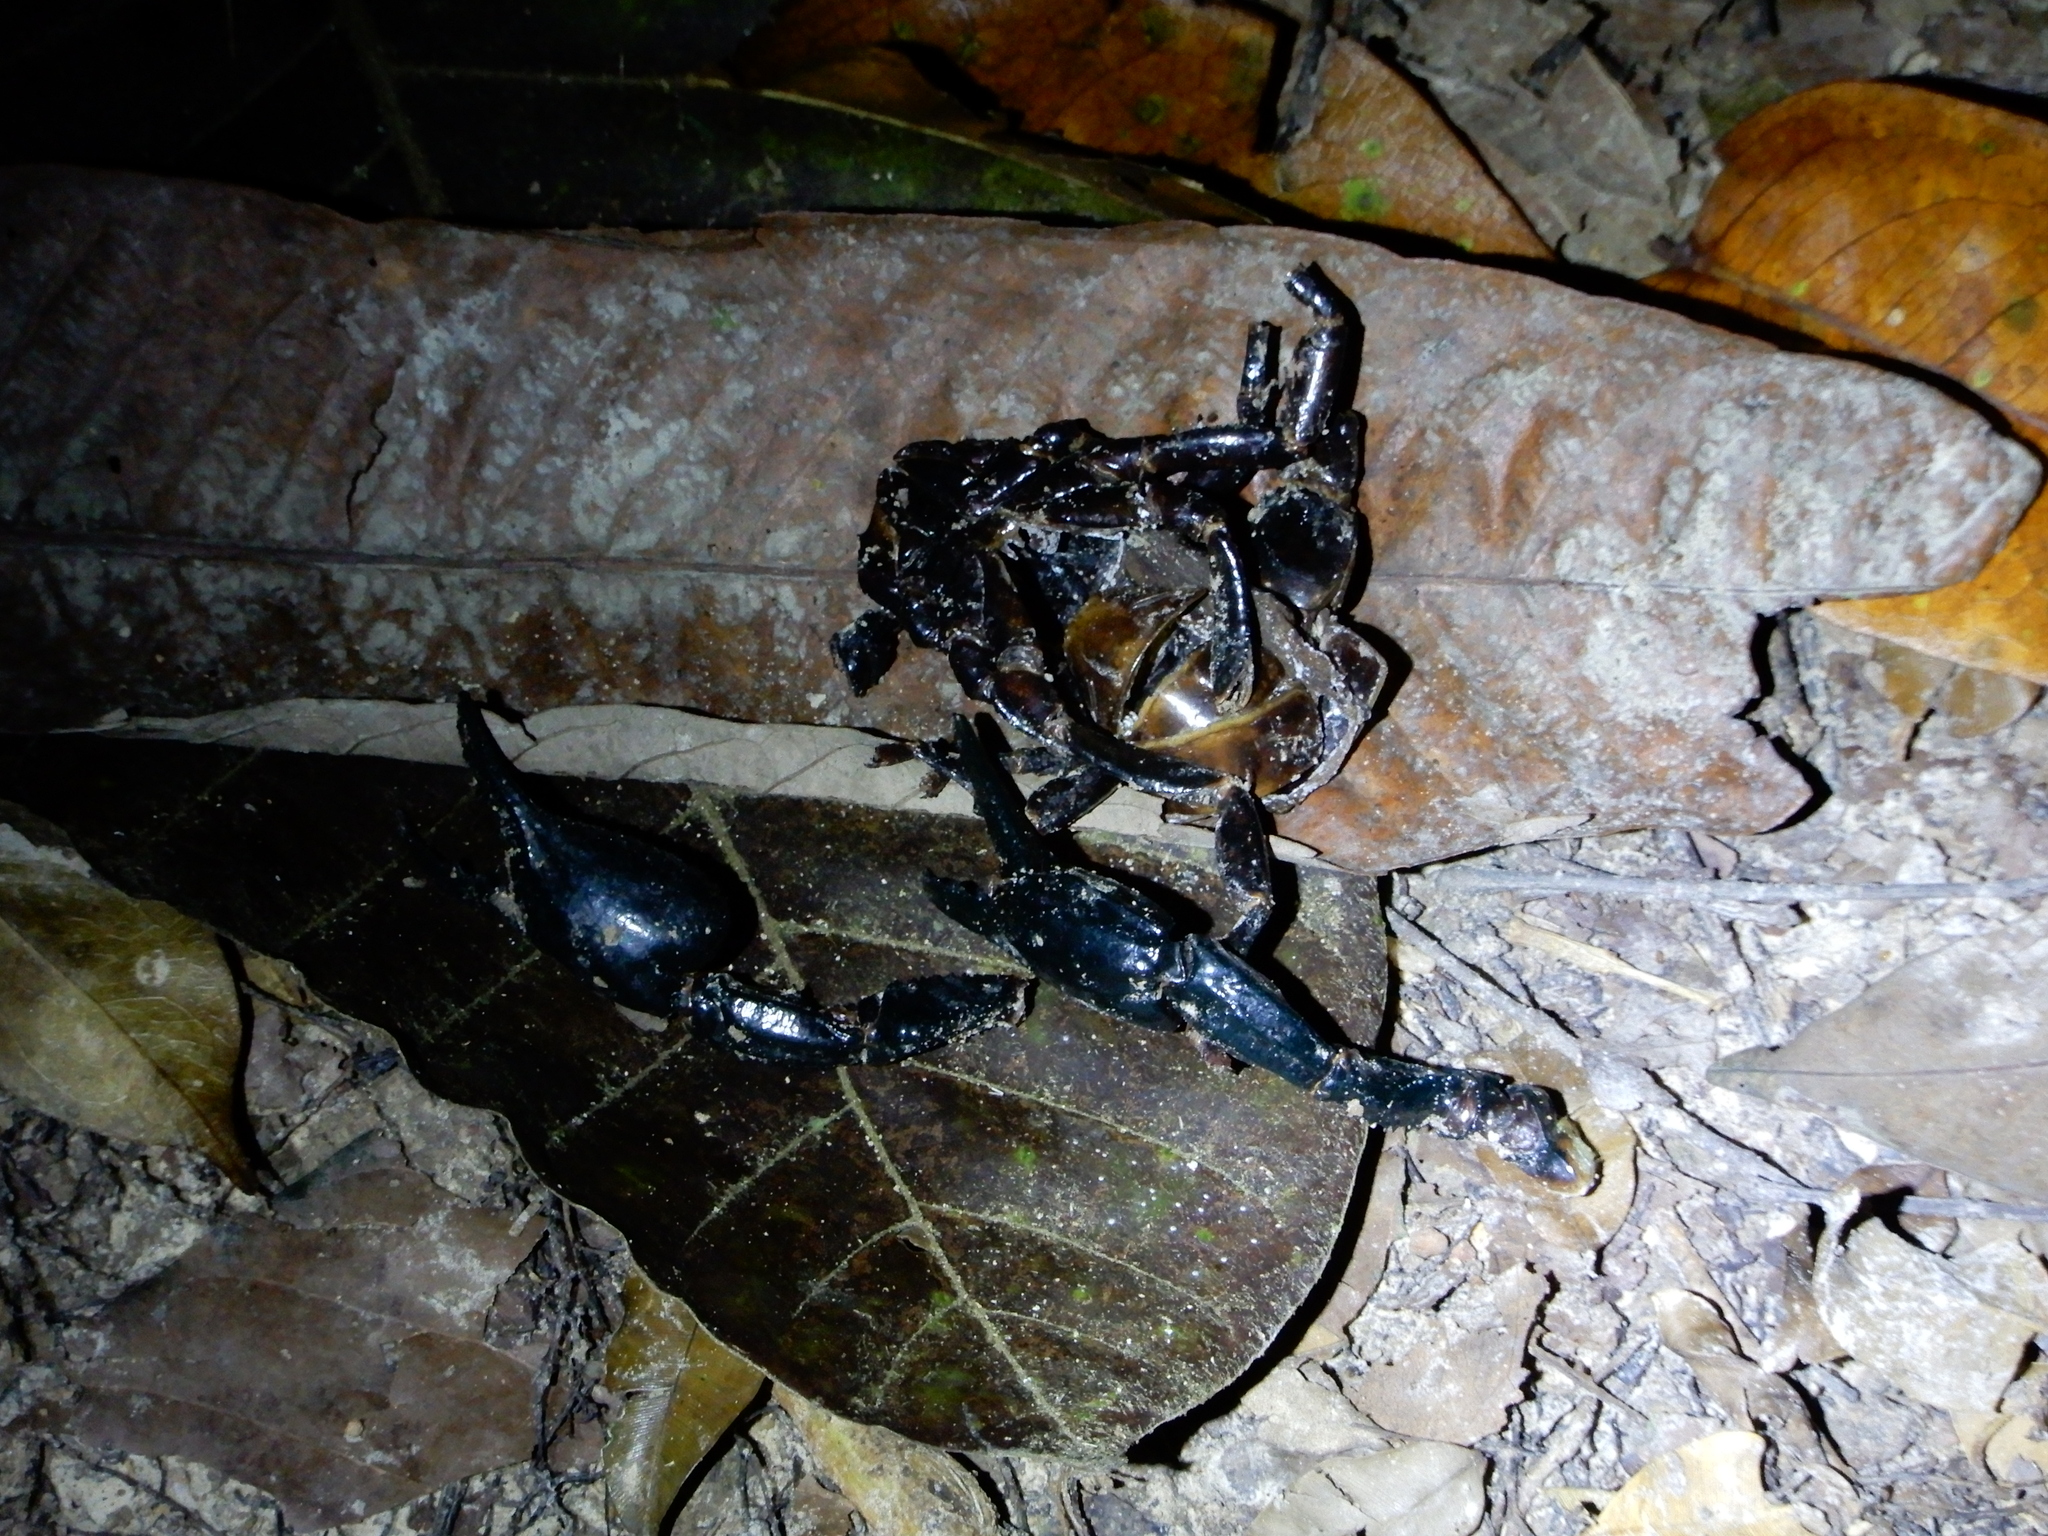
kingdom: Animalia
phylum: Arthropoda
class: Arachnida
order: Scorpiones
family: Scorpionidae
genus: Heterometrus
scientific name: Heterometrus spinifer
